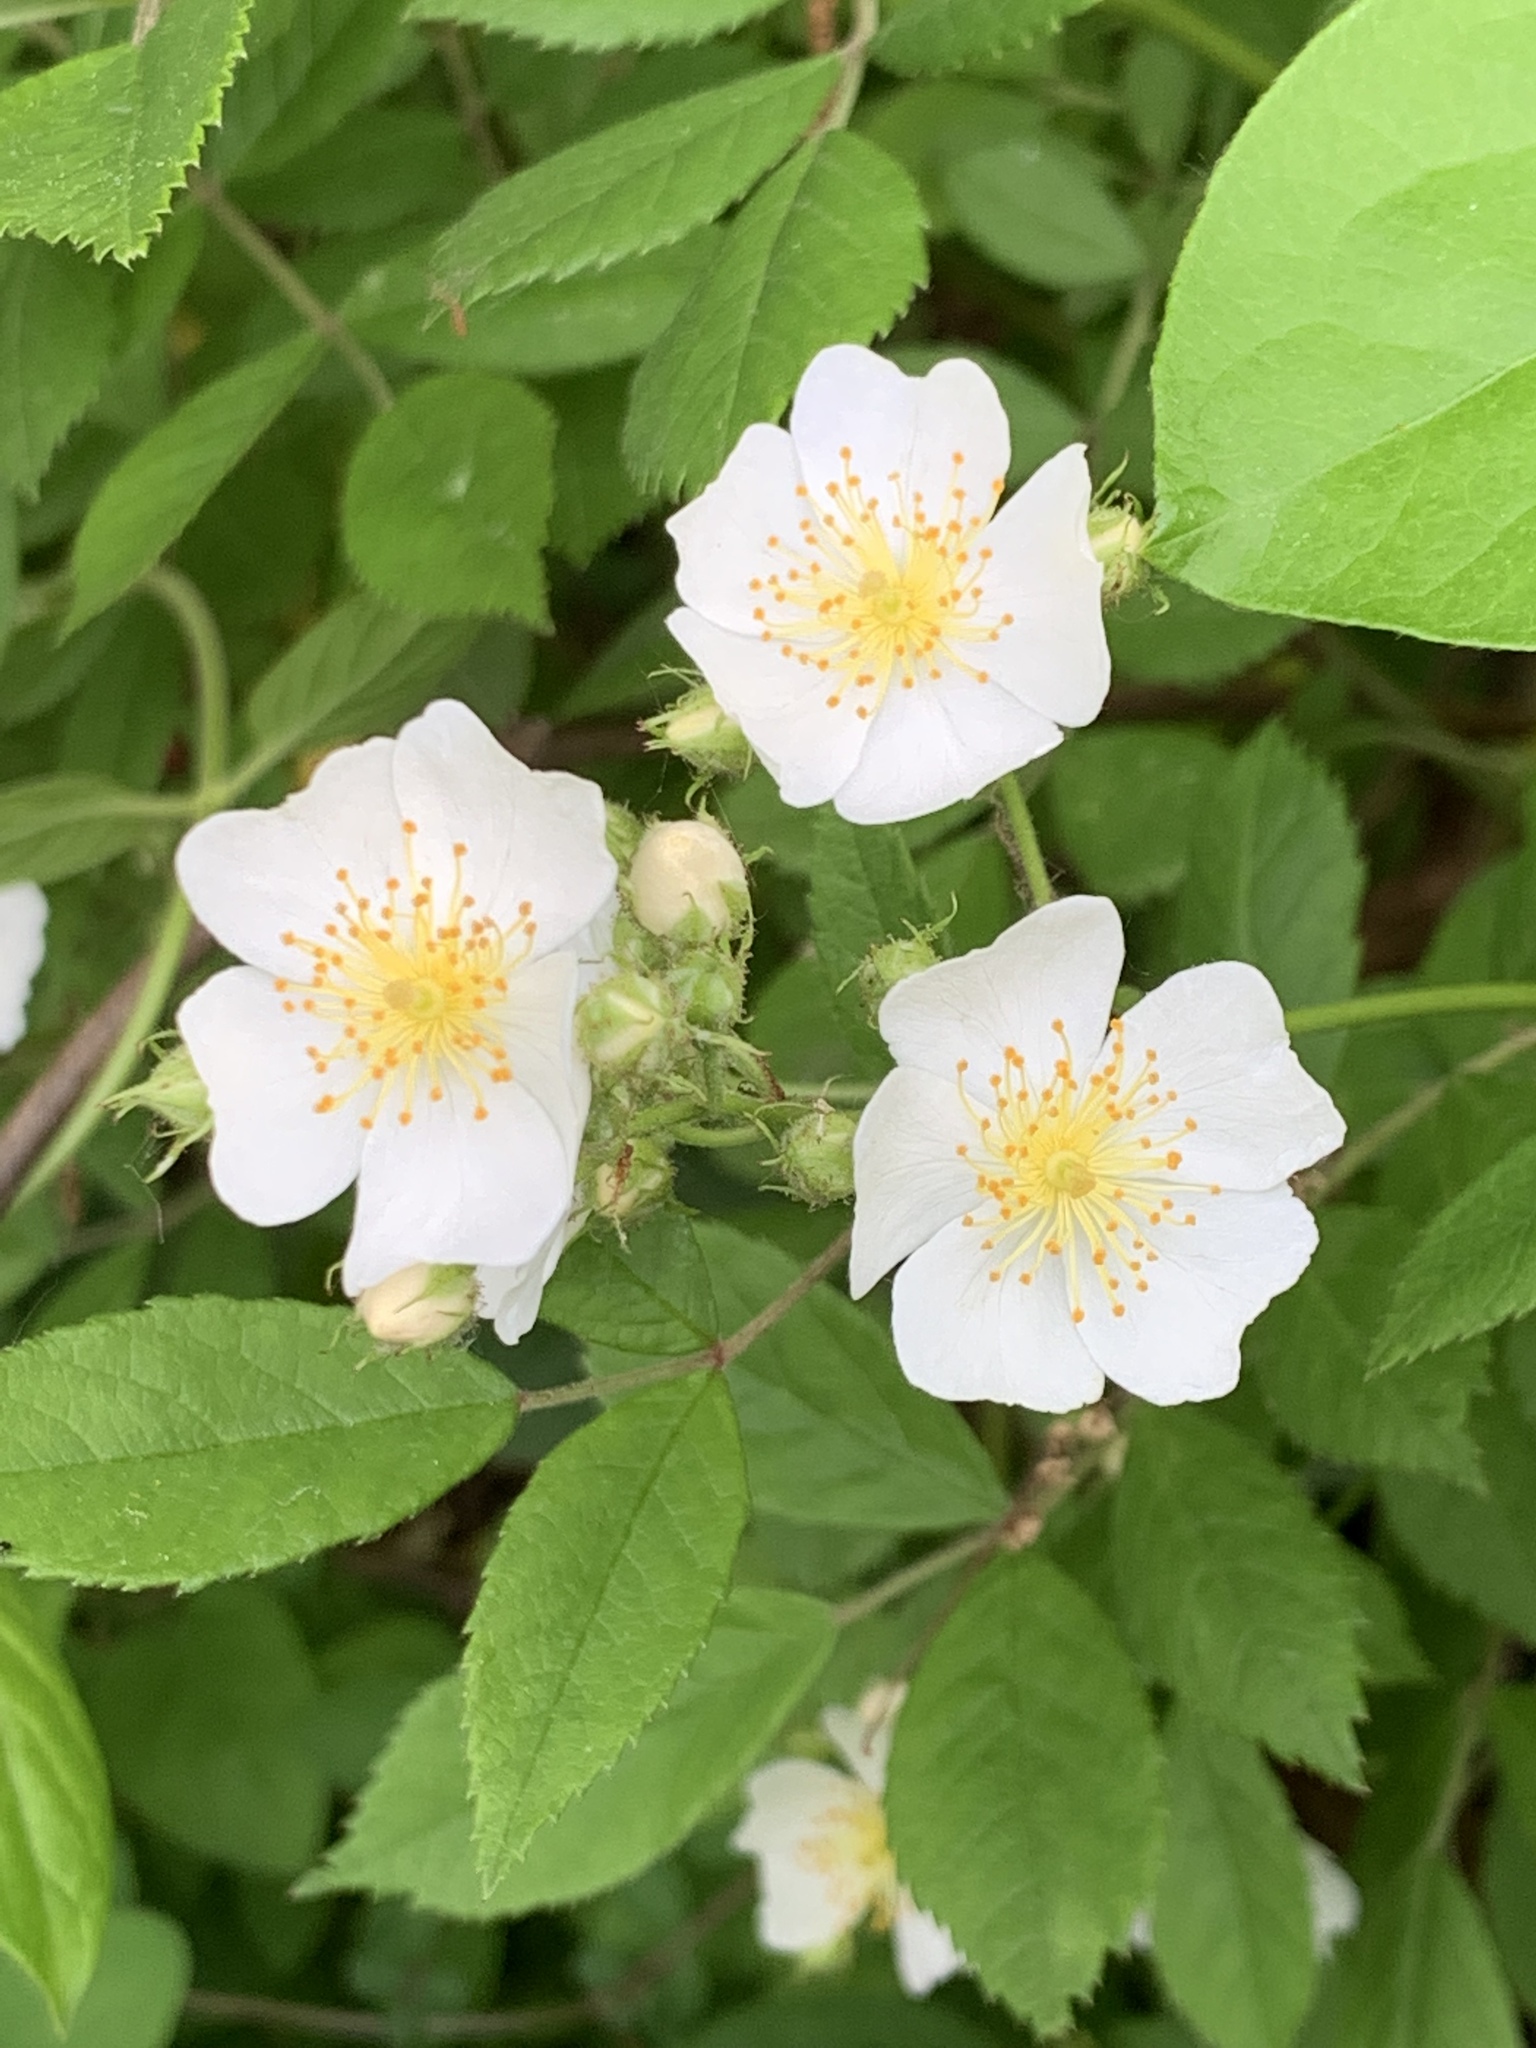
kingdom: Plantae
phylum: Tracheophyta
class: Magnoliopsida
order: Rosales
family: Rosaceae
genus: Rosa
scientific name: Rosa multiflora
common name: Multiflora rose
